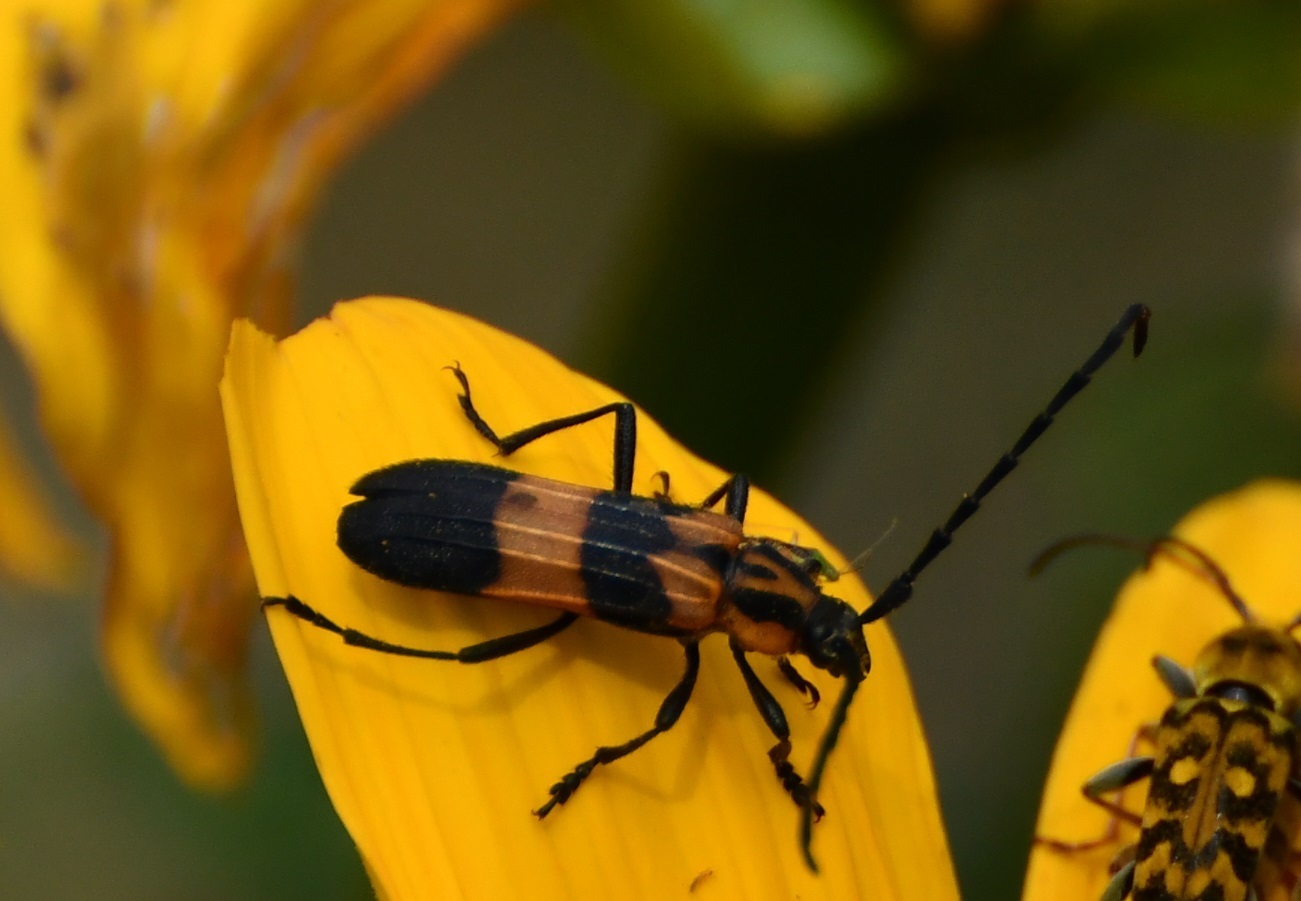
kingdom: Animalia
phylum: Arthropoda
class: Insecta
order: Coleoptera
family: Cerambycidae
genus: Parevander
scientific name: Parevander xanthomelas
